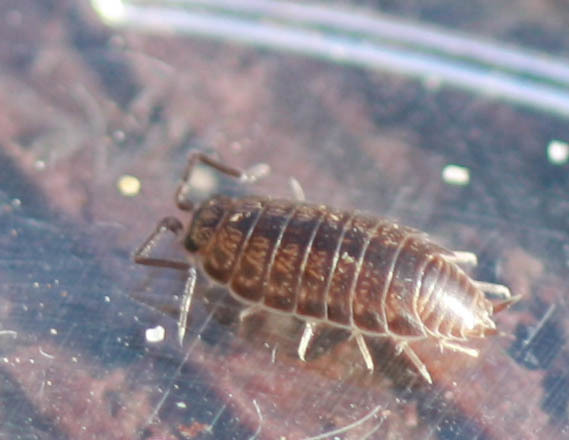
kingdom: Animalia
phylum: Arthropoda
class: Malacostraca
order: Isopoda
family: Halophilosciidae
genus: Littorophiloscia
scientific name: Littorophiloscia richardsonae
